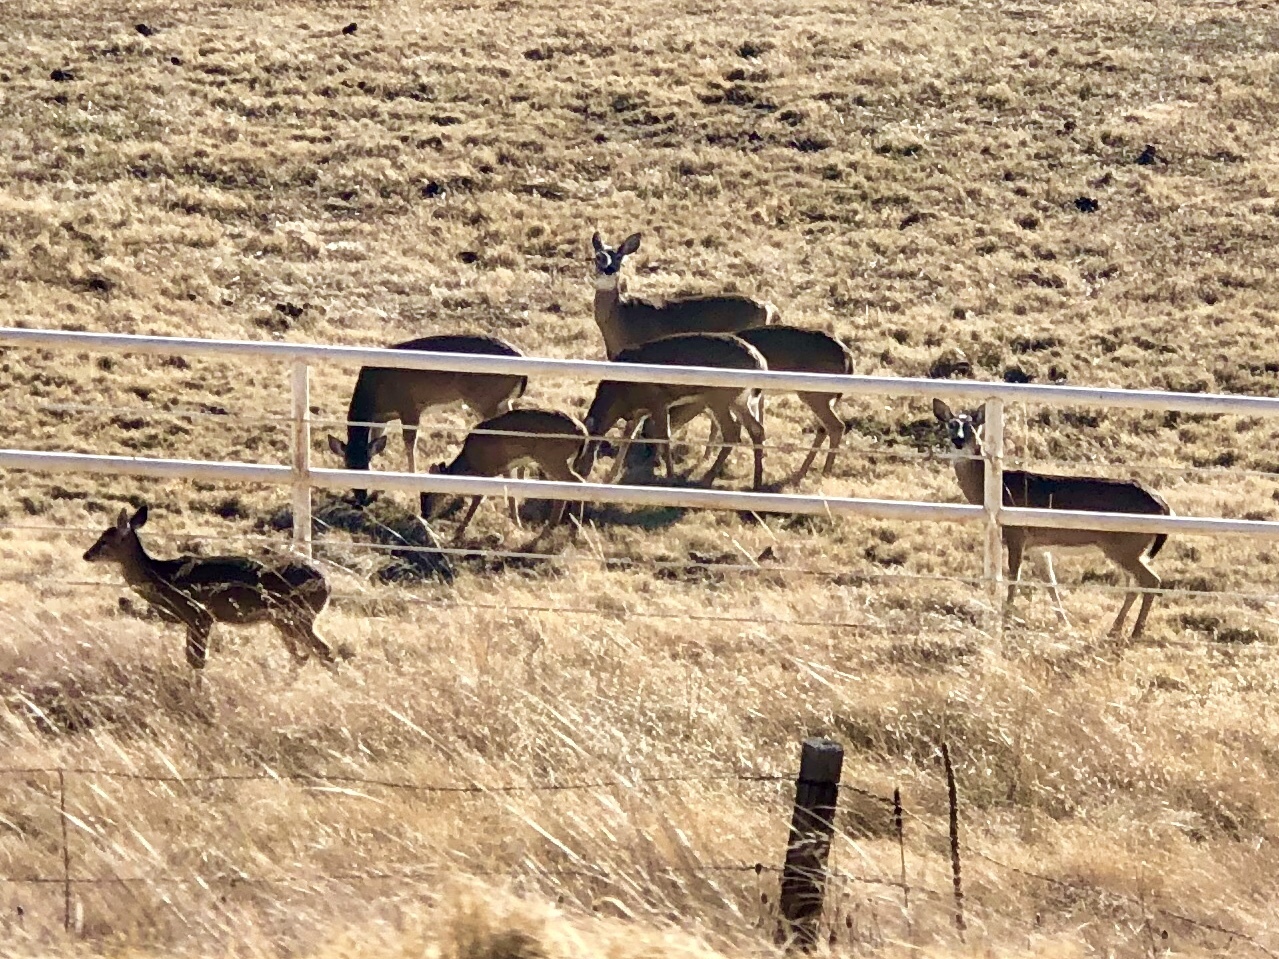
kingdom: Animalia
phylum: Chordata
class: Mammalia
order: Artiodactyla
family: Cervidae
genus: Odocoileus
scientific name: Odocoileus virginianus
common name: White-tailed deer
